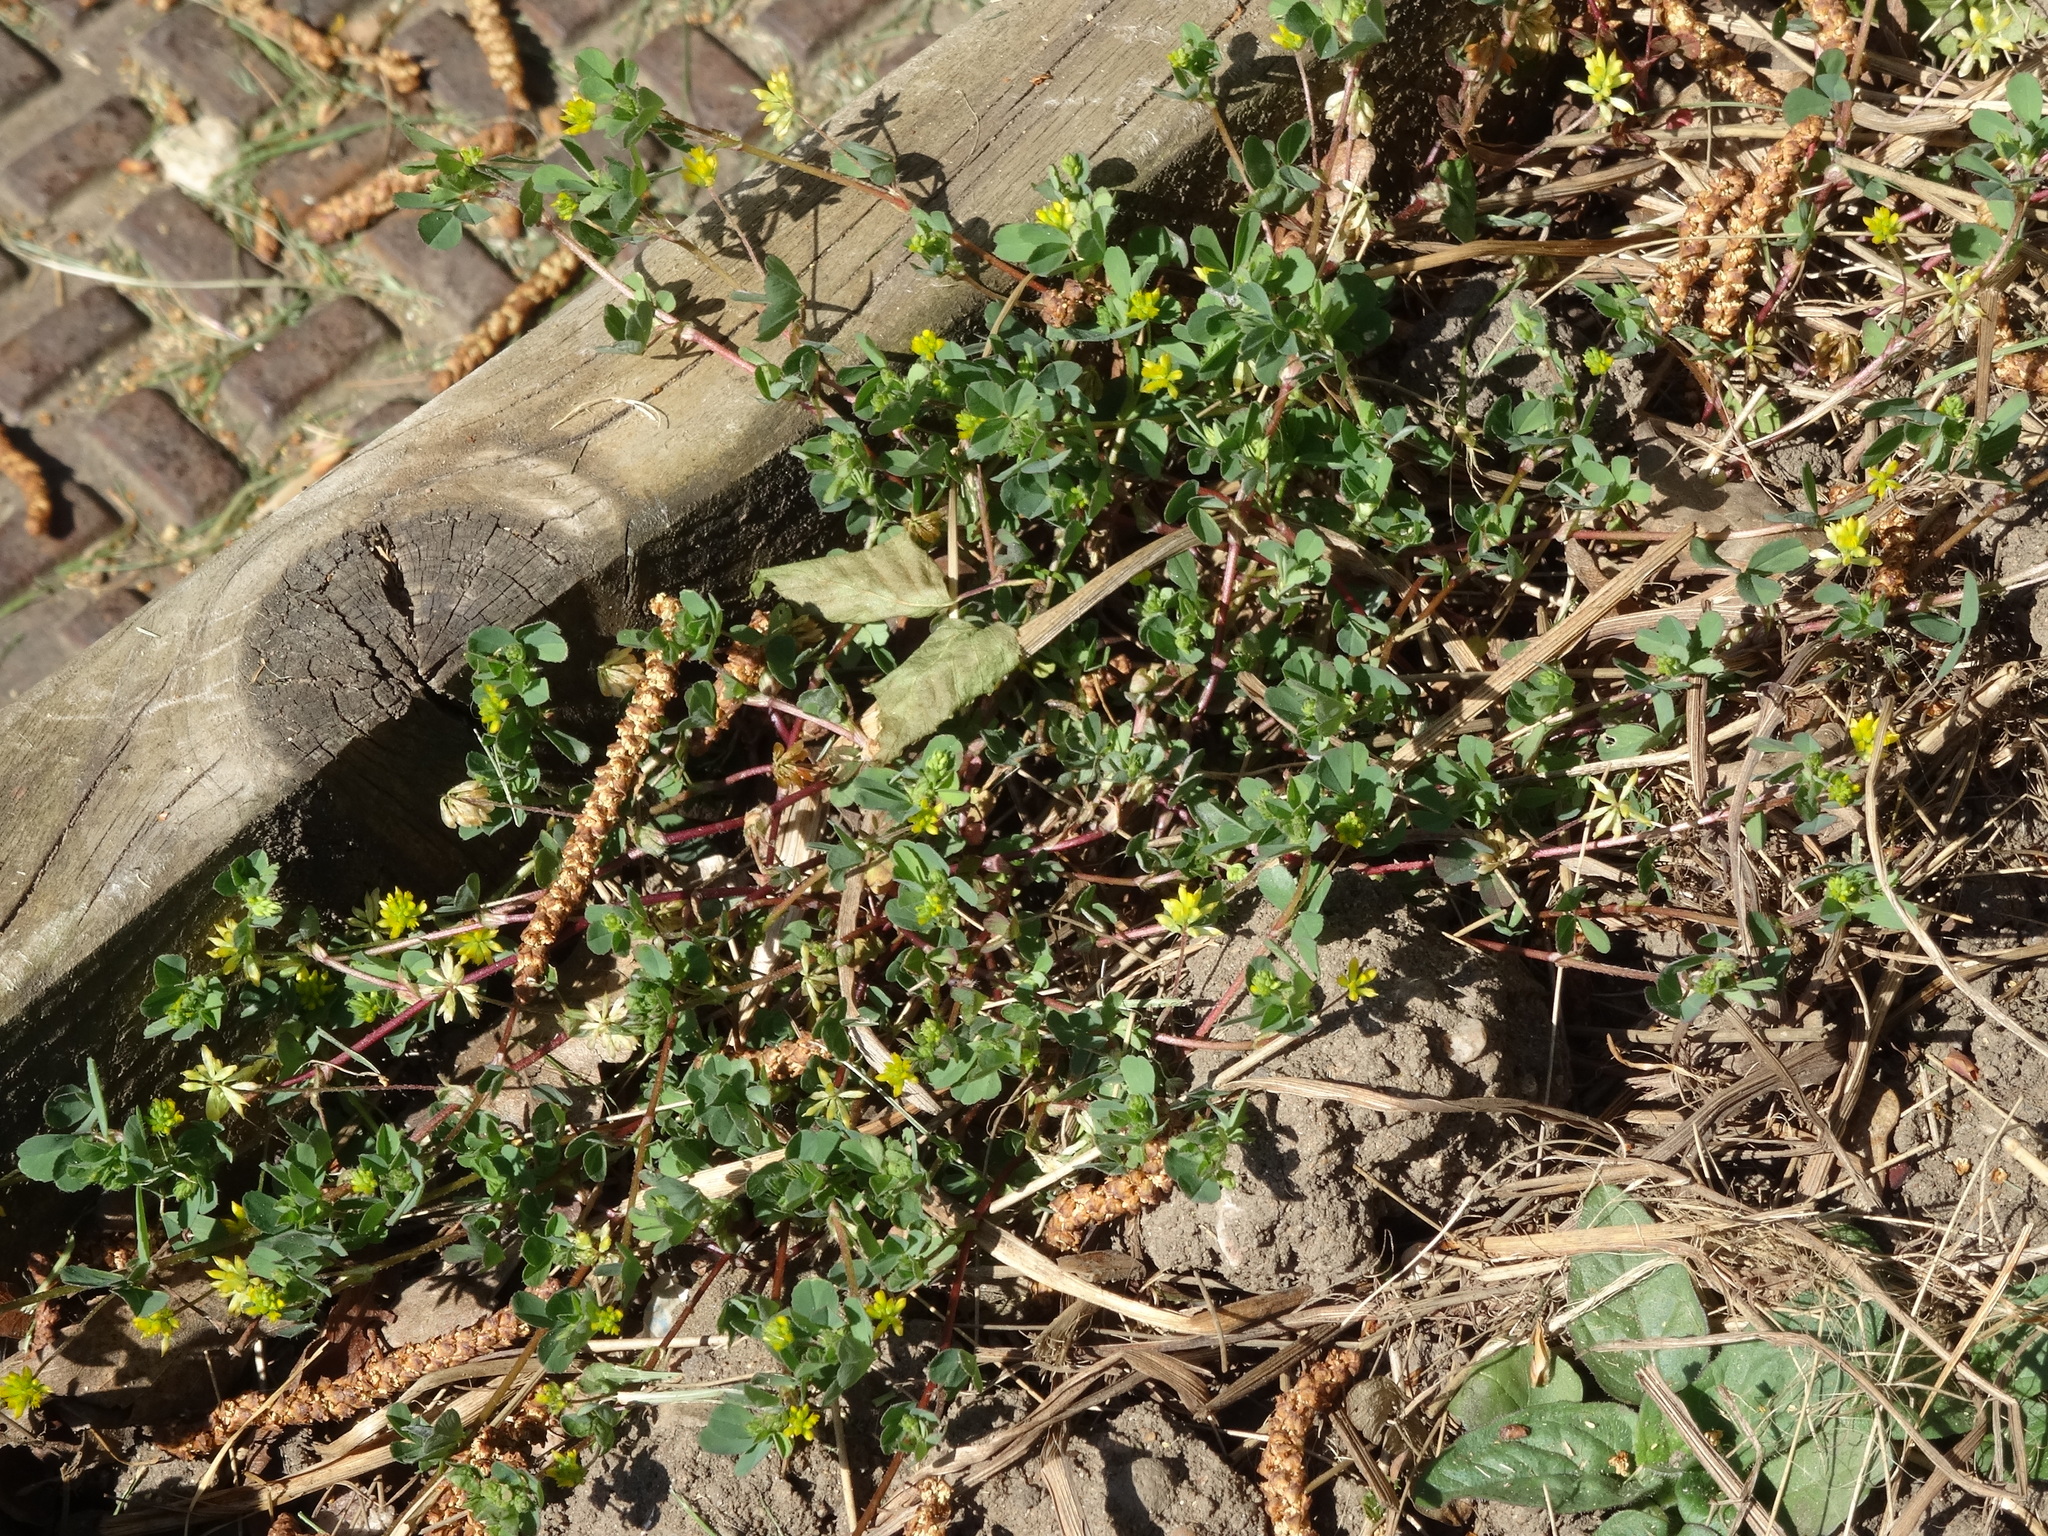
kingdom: Plantae
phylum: Tracheophyta
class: Magnoliopsida
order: Fabales
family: Fabaceae
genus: Trifolium
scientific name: Trifolium dubium
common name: Suckling clover
